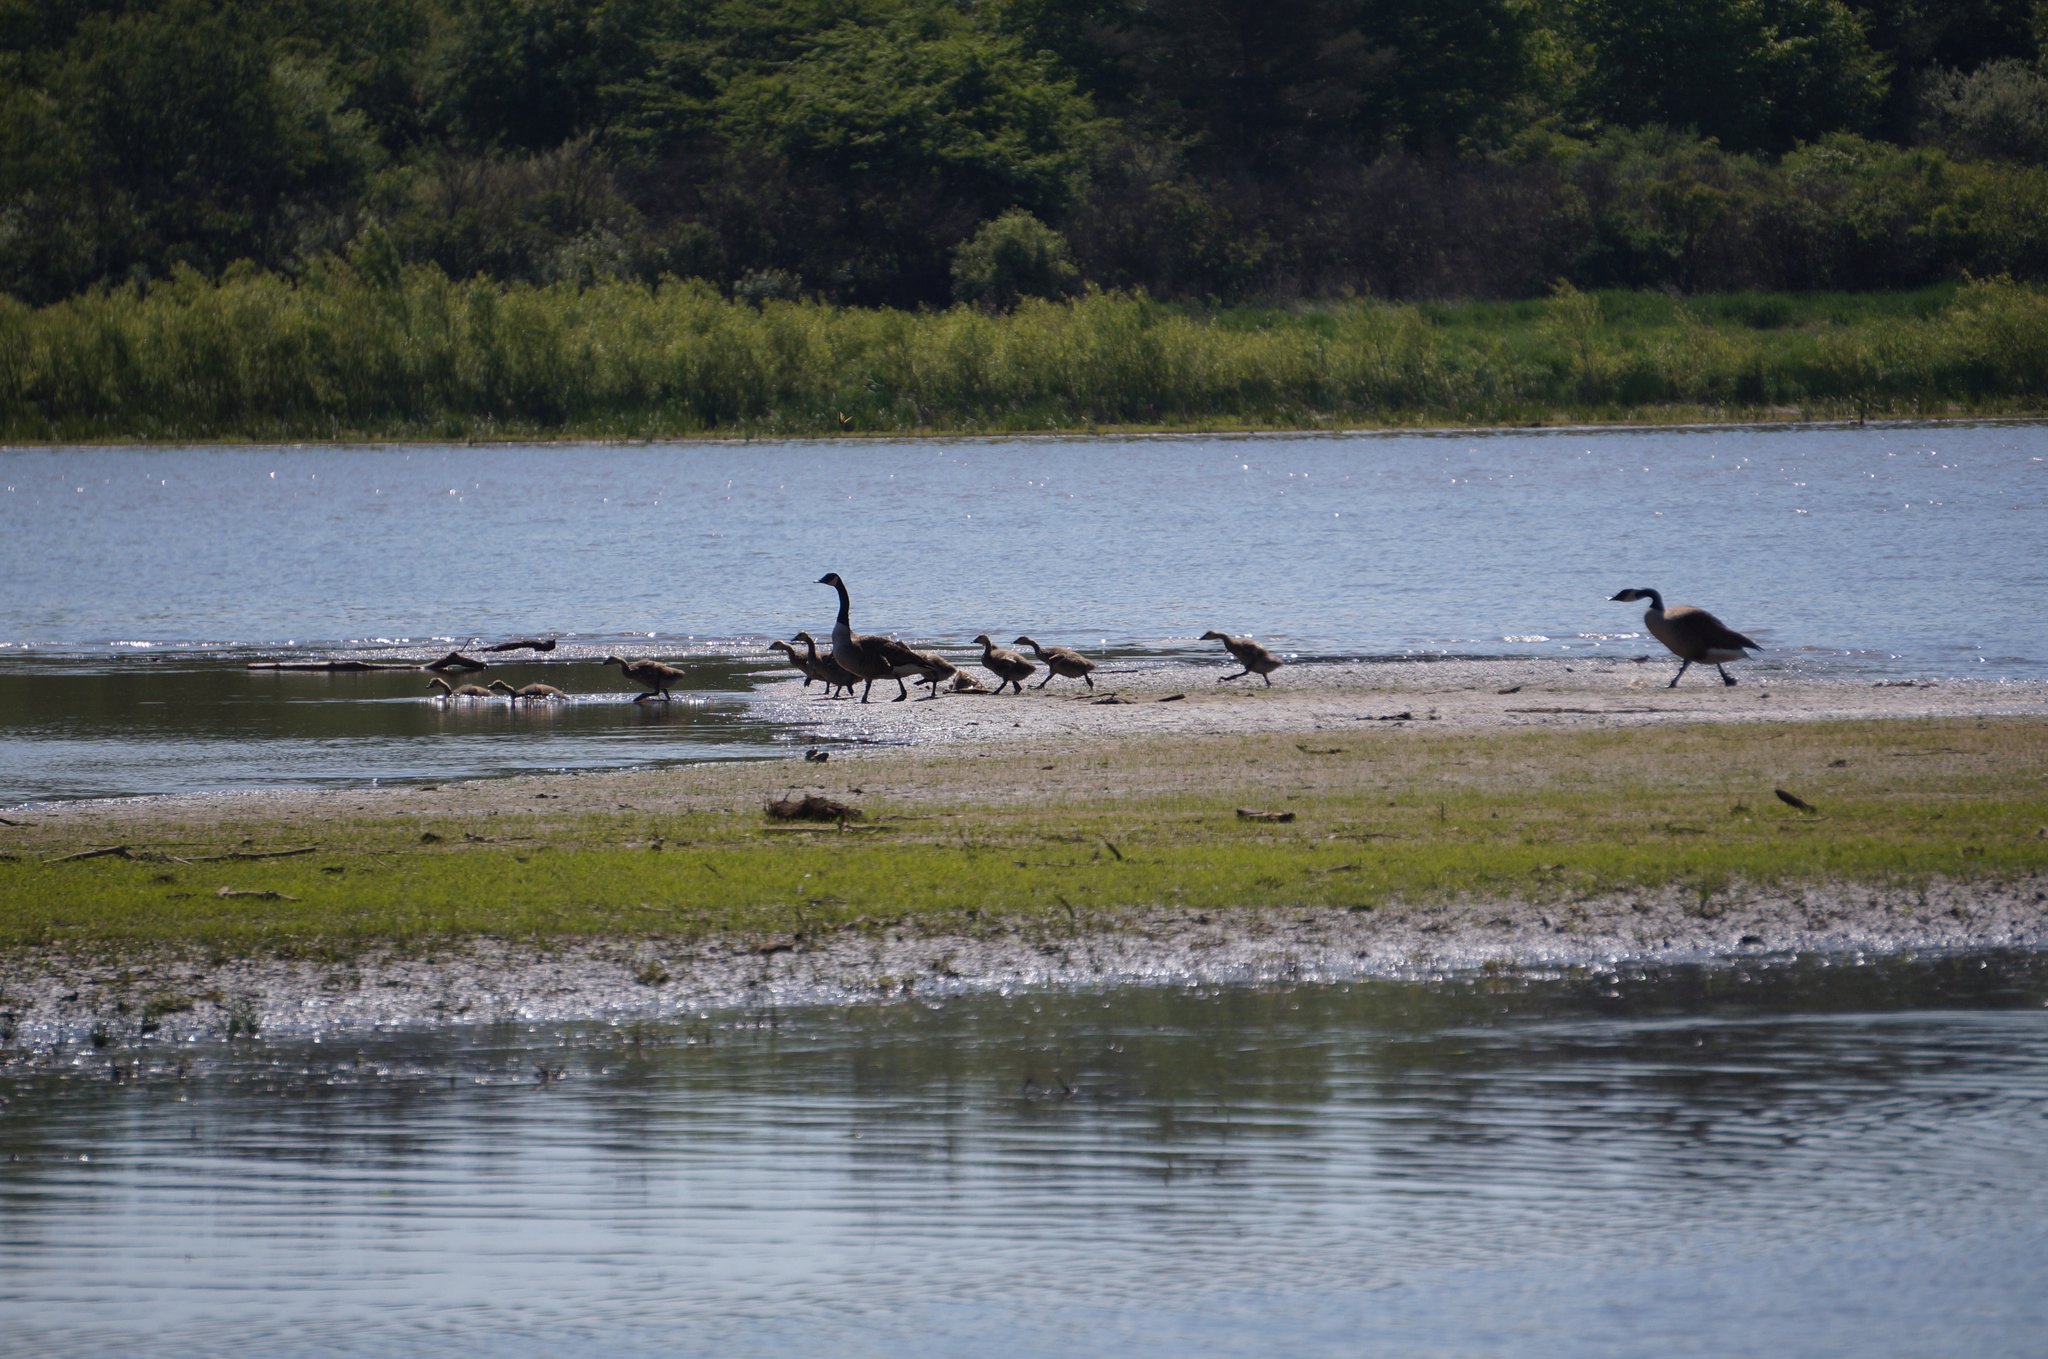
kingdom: Animalia
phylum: Chordata
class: Aves
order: Anseriformes
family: Anatidae
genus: Branta
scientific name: Branta canadensis
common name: Canada goose
